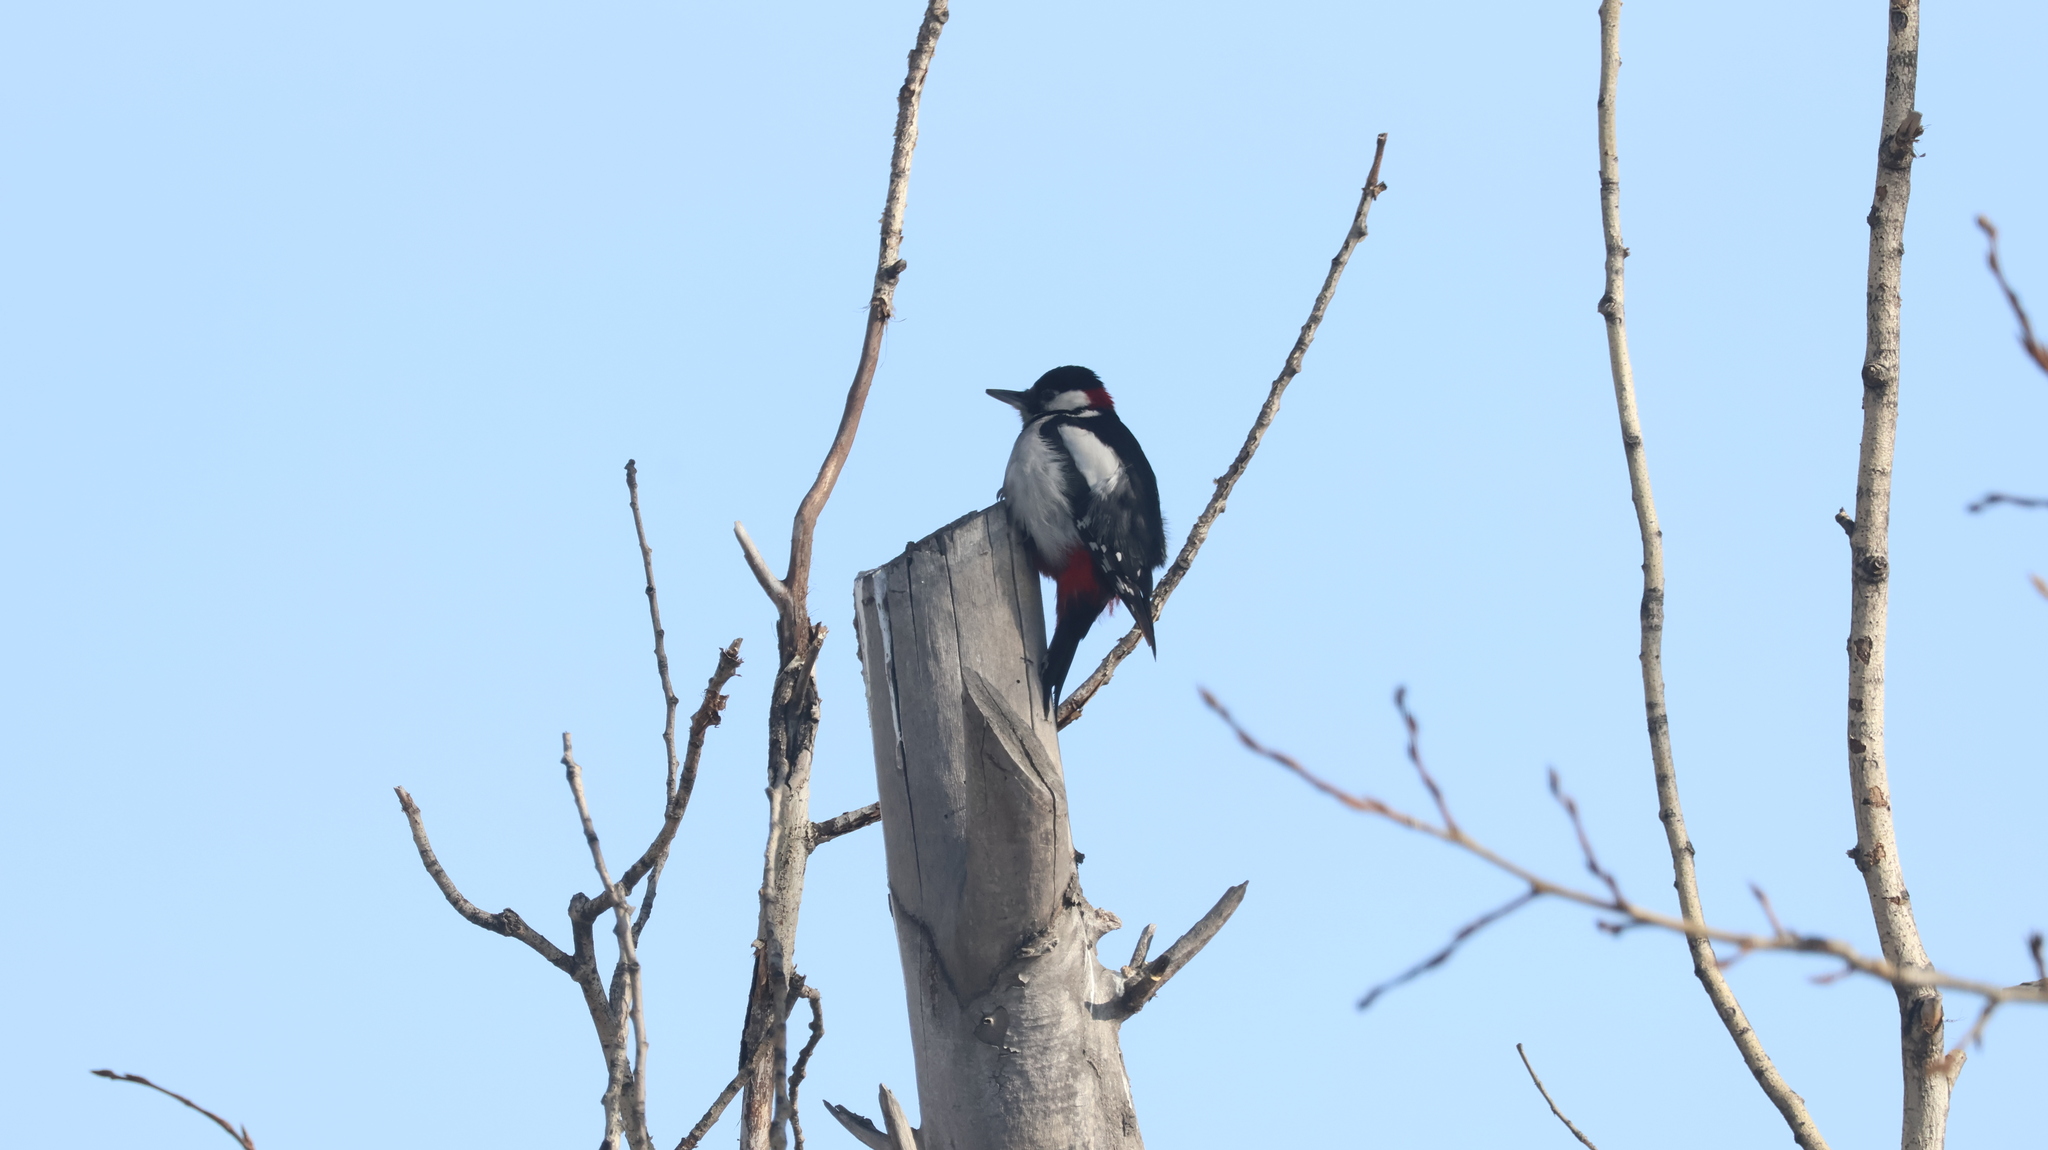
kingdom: Animalia
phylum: Chordata
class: Aves
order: Piciformes
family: Picidae
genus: Dendrocopos
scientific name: Dendrocopos major
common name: Great spotted woodpecker
